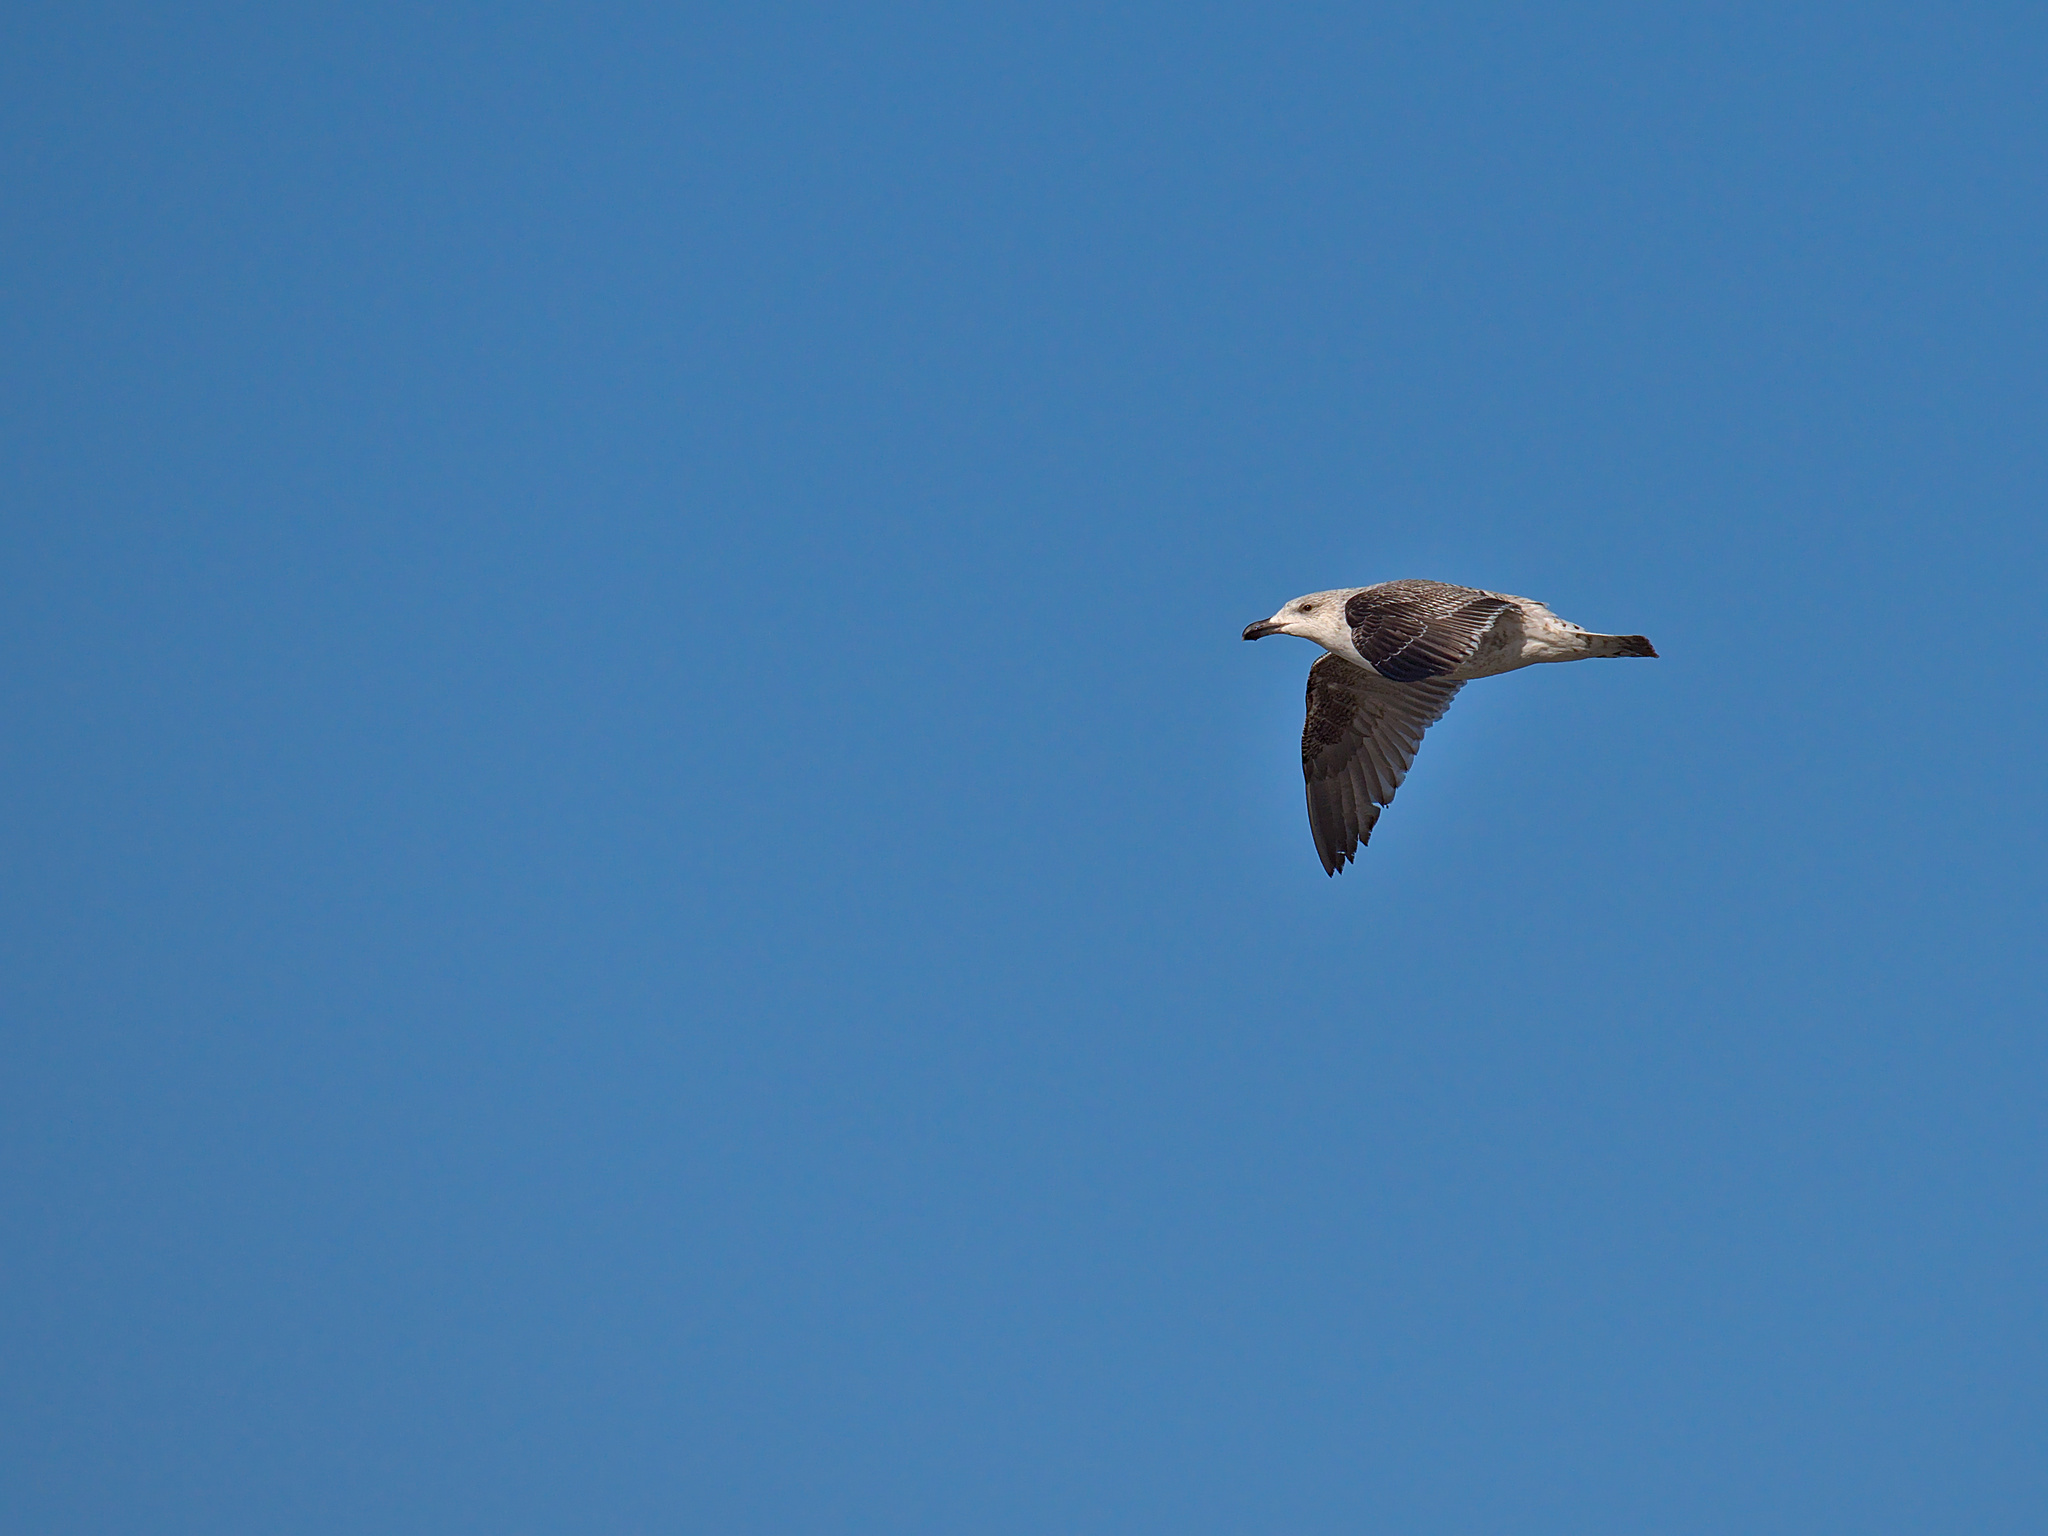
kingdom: Animalia
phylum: Chordata
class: Aves
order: Charadriiformes
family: Laridae
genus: Larus
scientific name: Larus marinus
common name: Great black-backed gull
